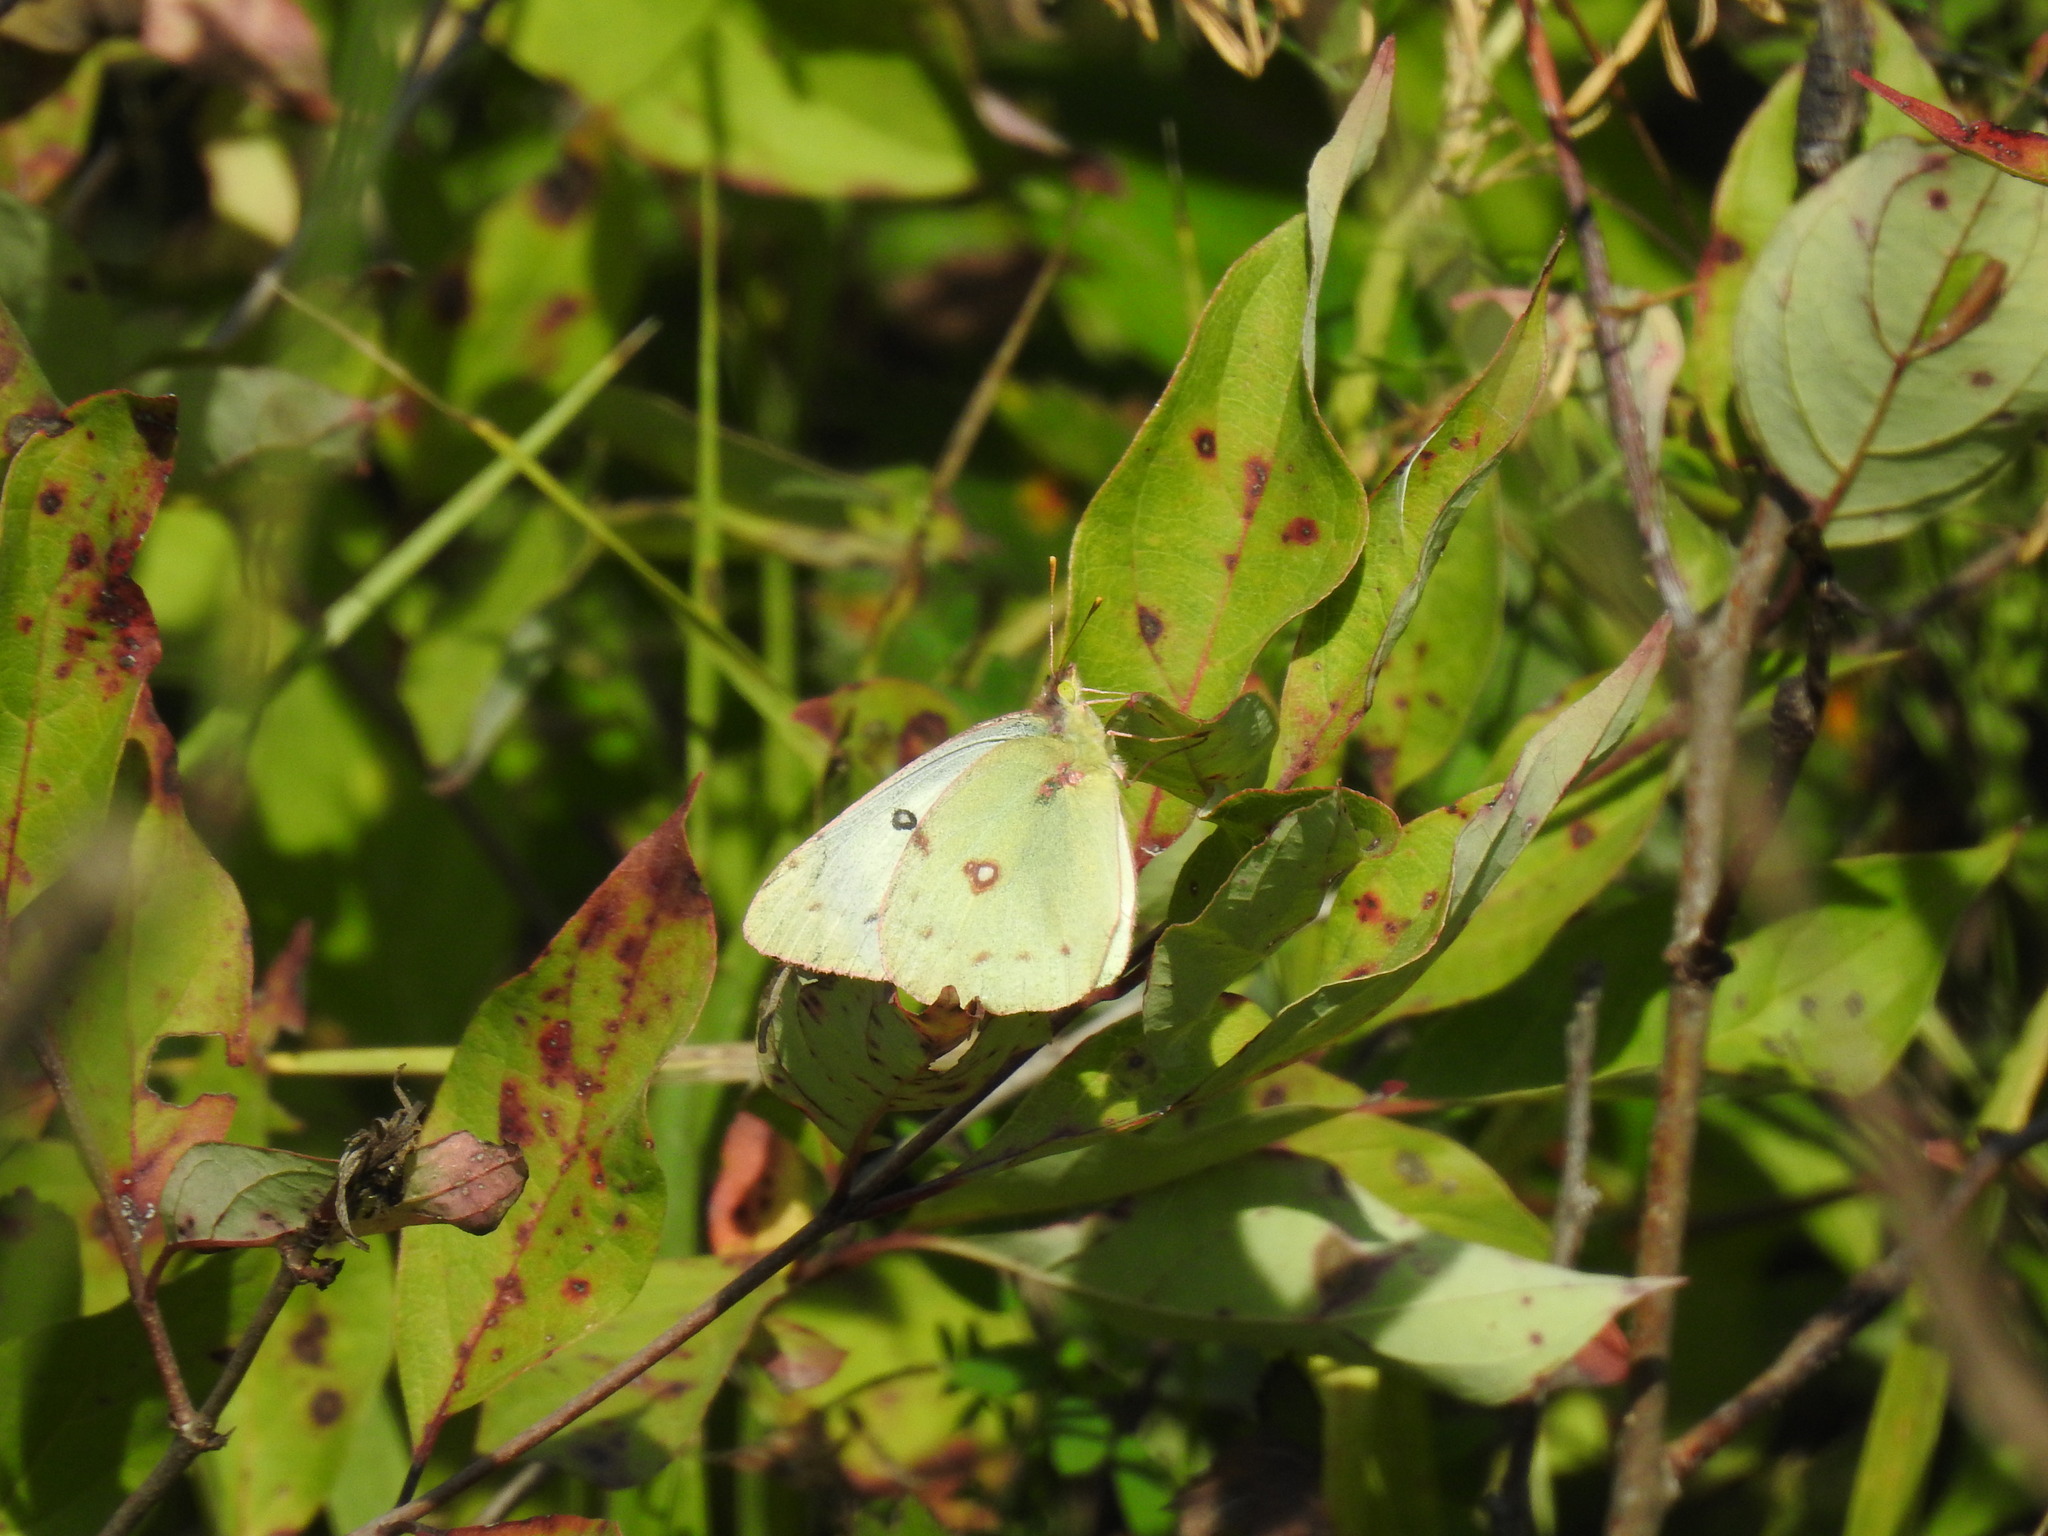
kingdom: Animalia
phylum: Arthropoda
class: Insecta
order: Lepidoptera
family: Pieridae
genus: Colias
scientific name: Colias philodice
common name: Clouded sulphur
